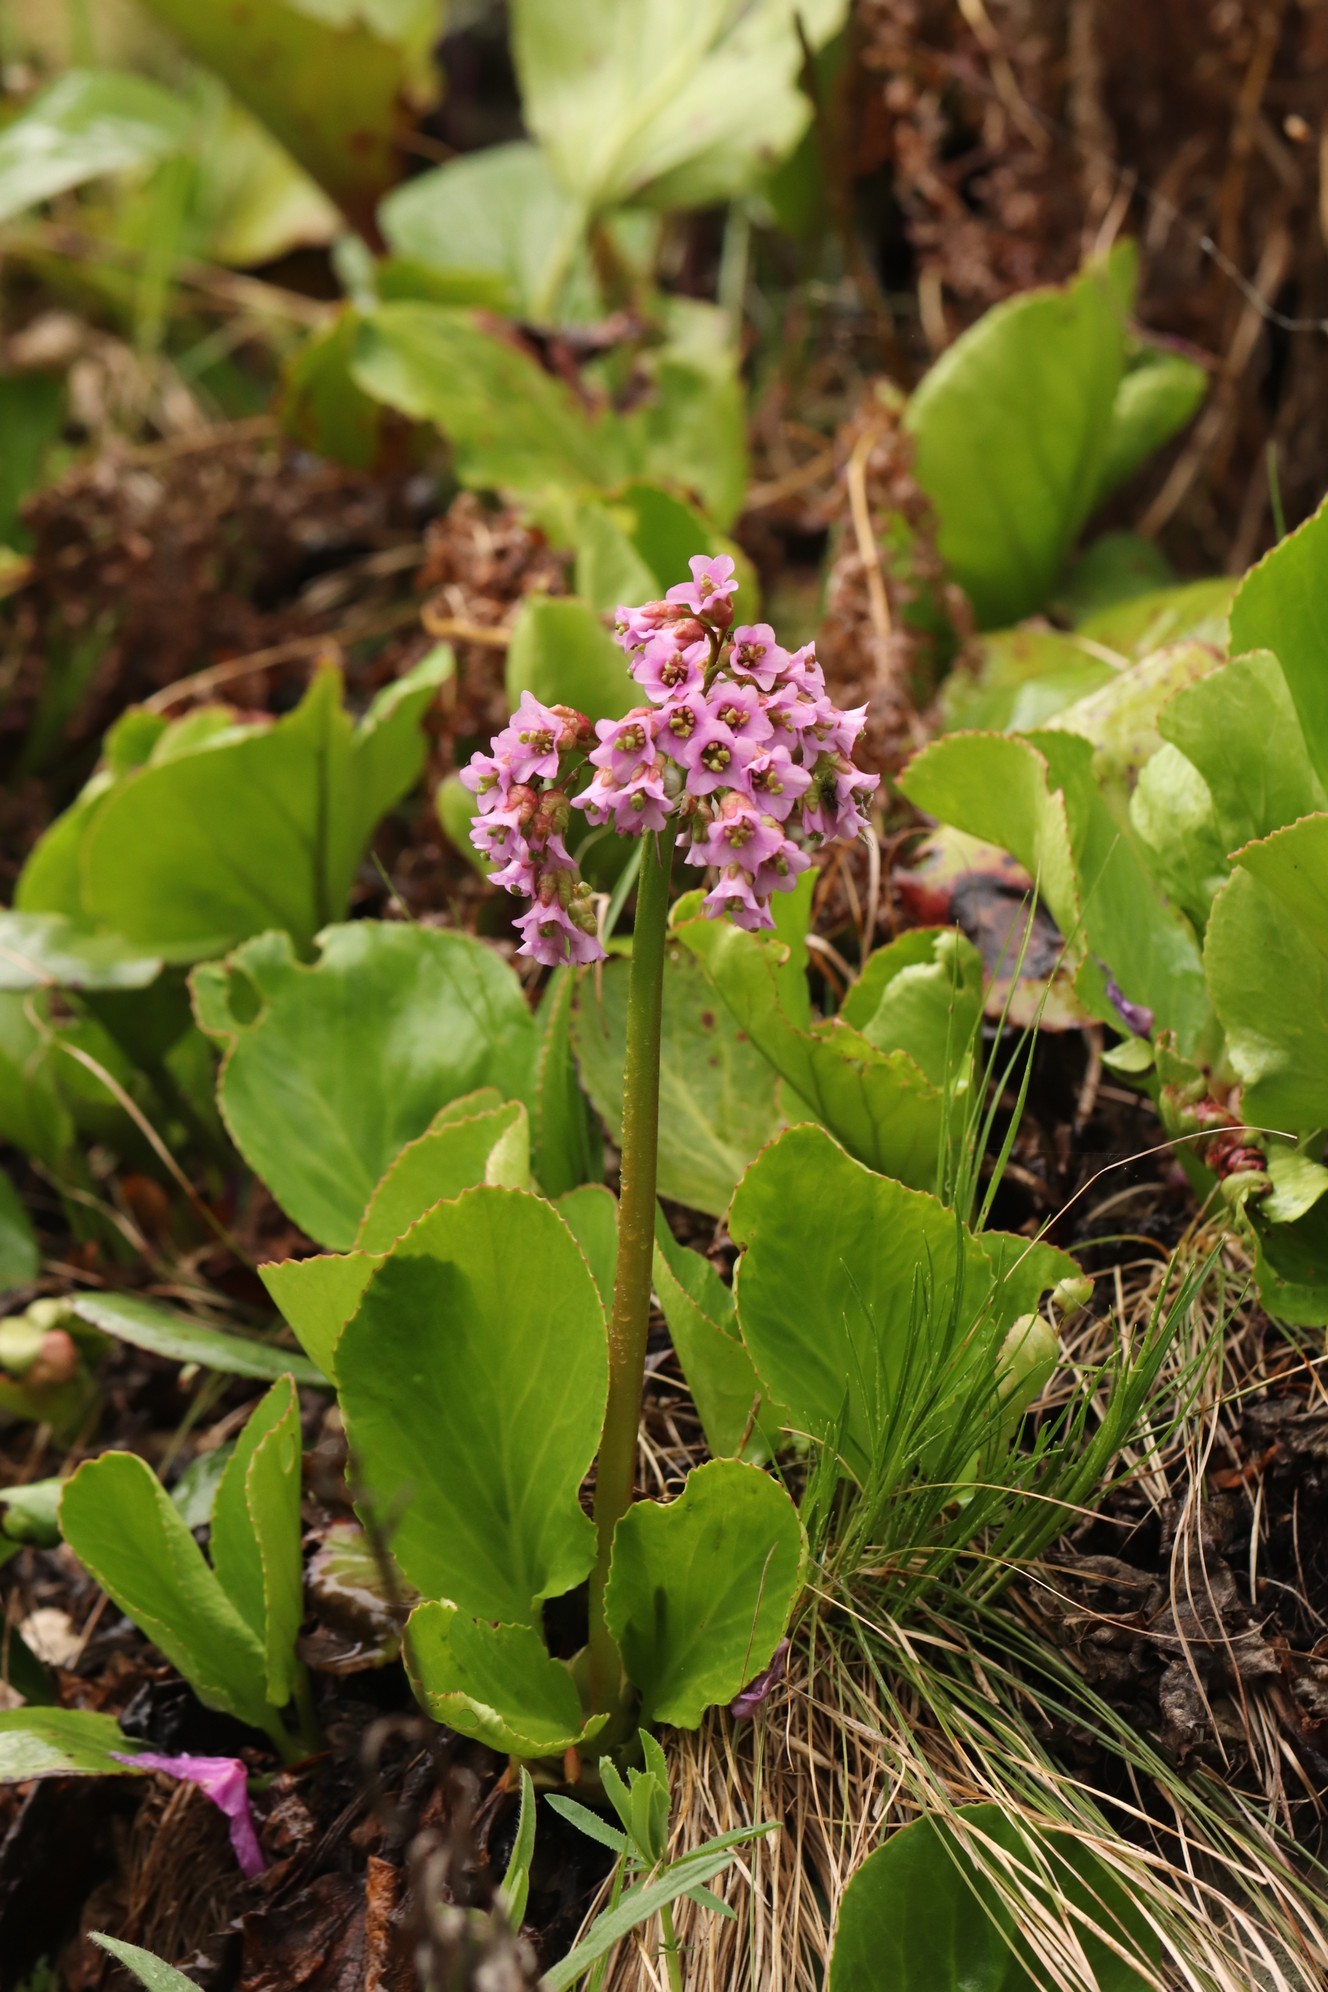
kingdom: Plantae
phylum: Tracheophyta
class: Magnoliopsida
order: Saxifragales
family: Saxifragaceae
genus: Bergenia
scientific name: Bergenia crassifolia
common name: Elephant-ears
